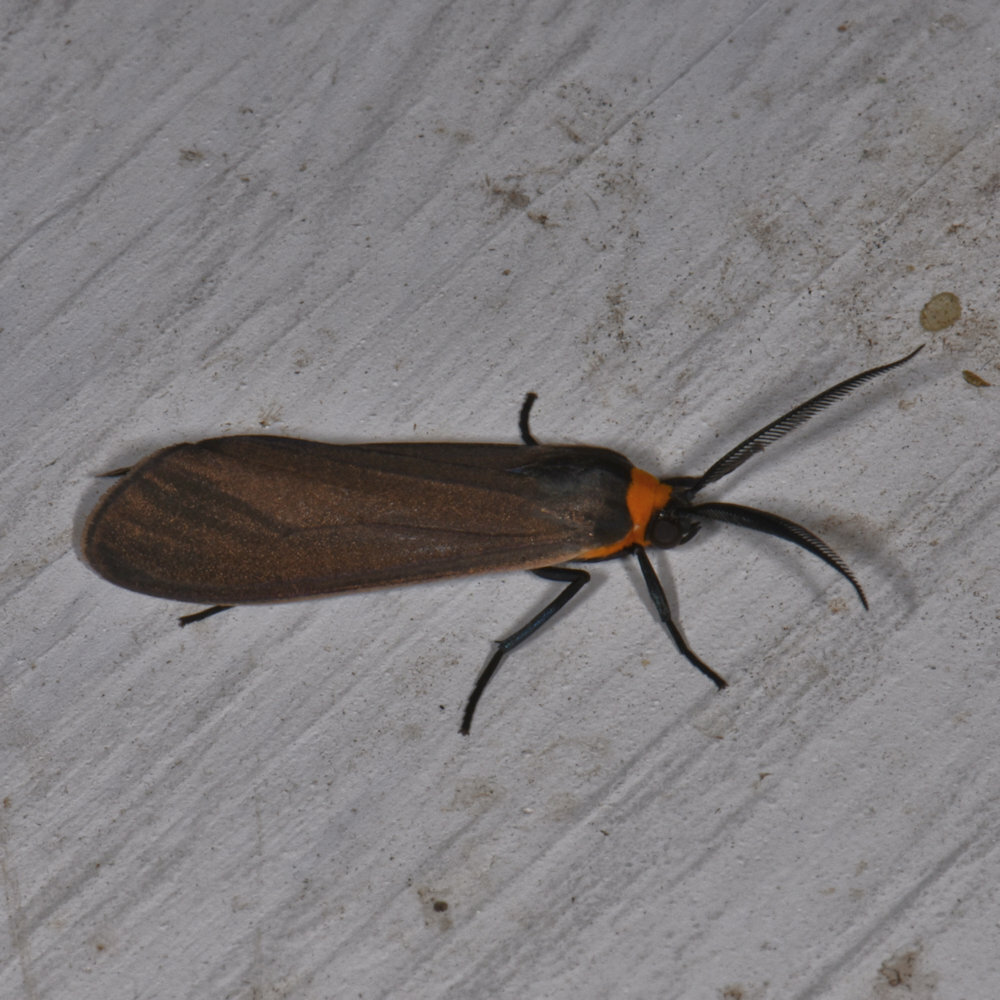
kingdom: Animalia
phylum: Arthropoda
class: Insecta
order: Lepidoptera
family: Erebidae
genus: Cisseps
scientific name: Cisseps fulvicollis
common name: Yellow-collared scape moth
